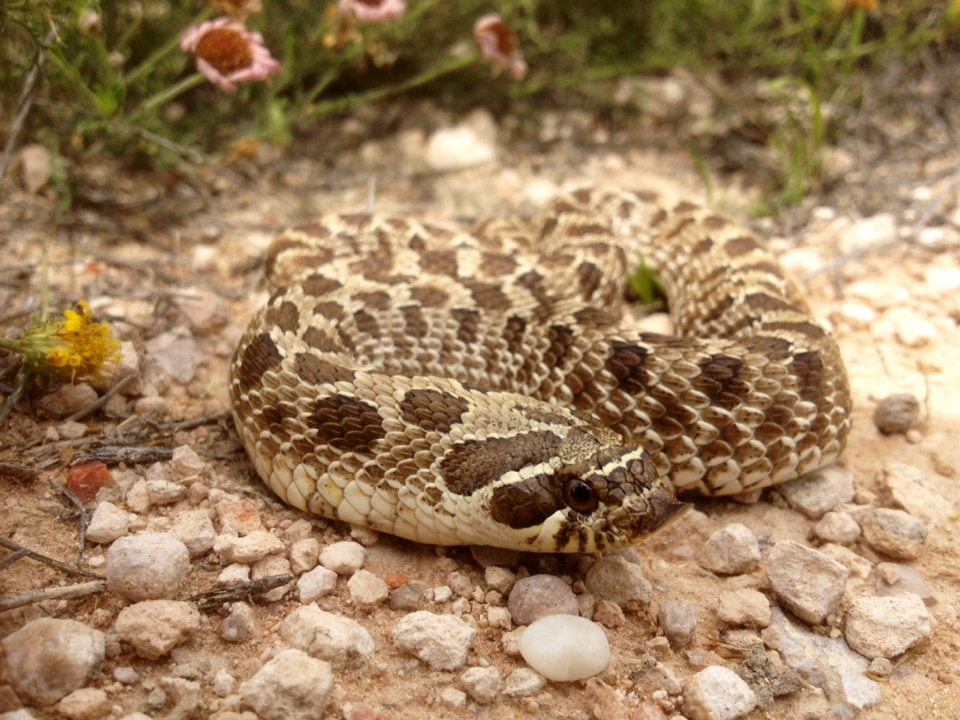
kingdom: Animalia
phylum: Chordata
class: Squamata
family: Colubridae
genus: Heterodon
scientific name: Heterodon nasicus
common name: Western hognose snake
